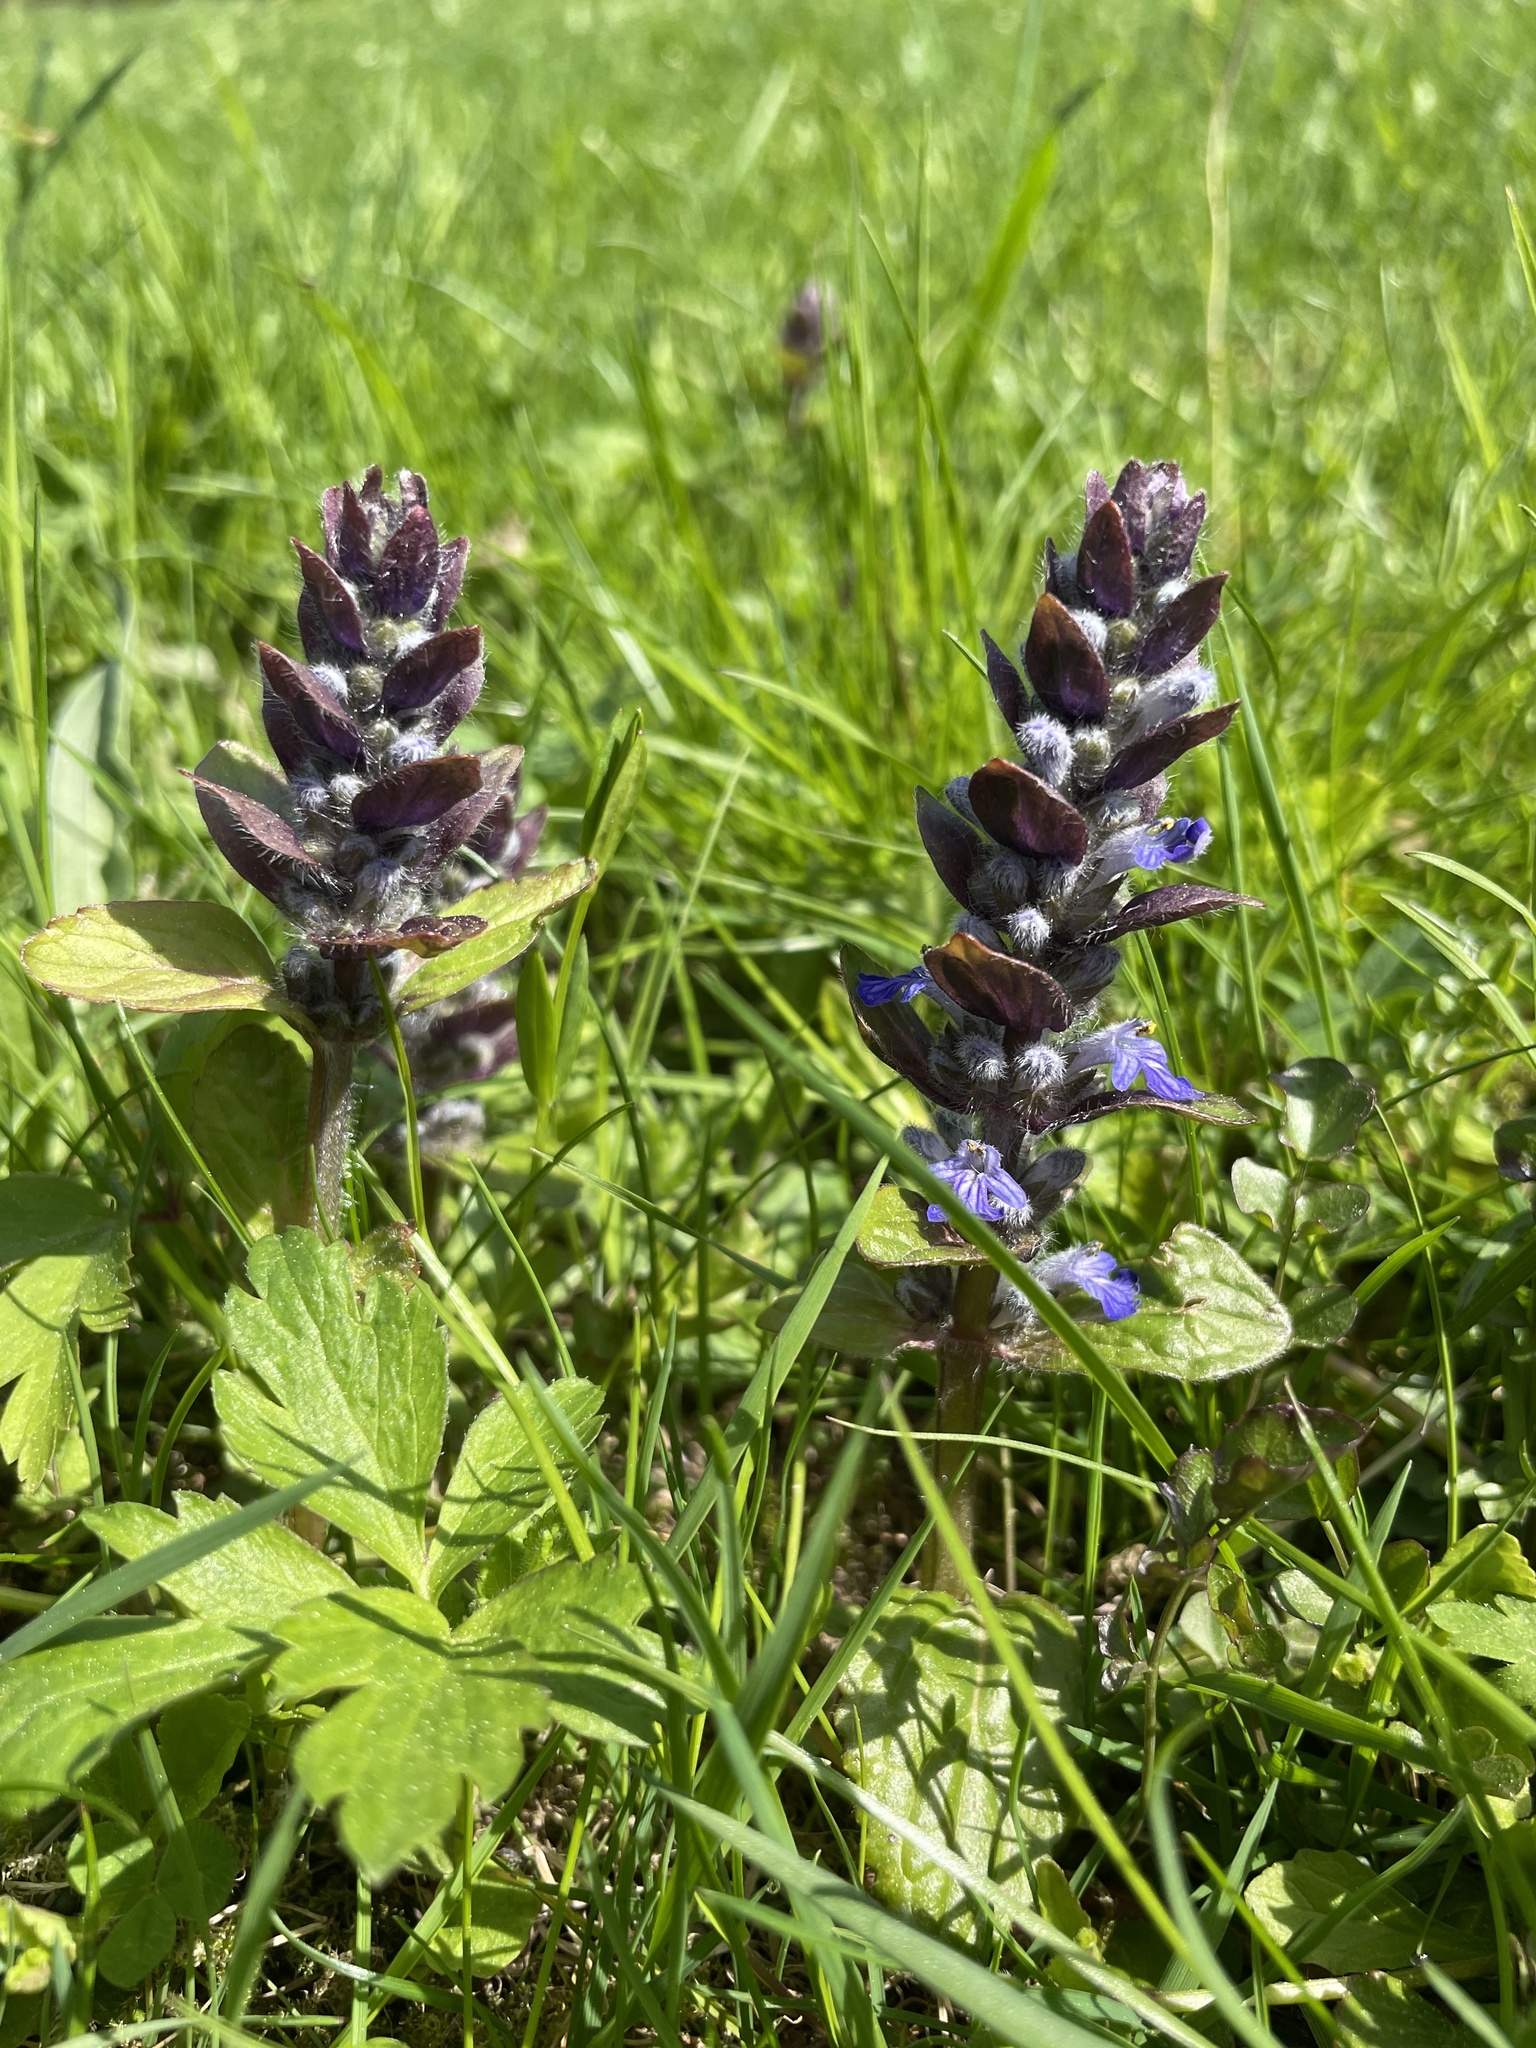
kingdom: Plantae
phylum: Tracheophyta
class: Magnoliopsida
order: Lamiales
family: Lamiaceae
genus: Ajuga
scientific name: Ajuga reptans
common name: Bugle
